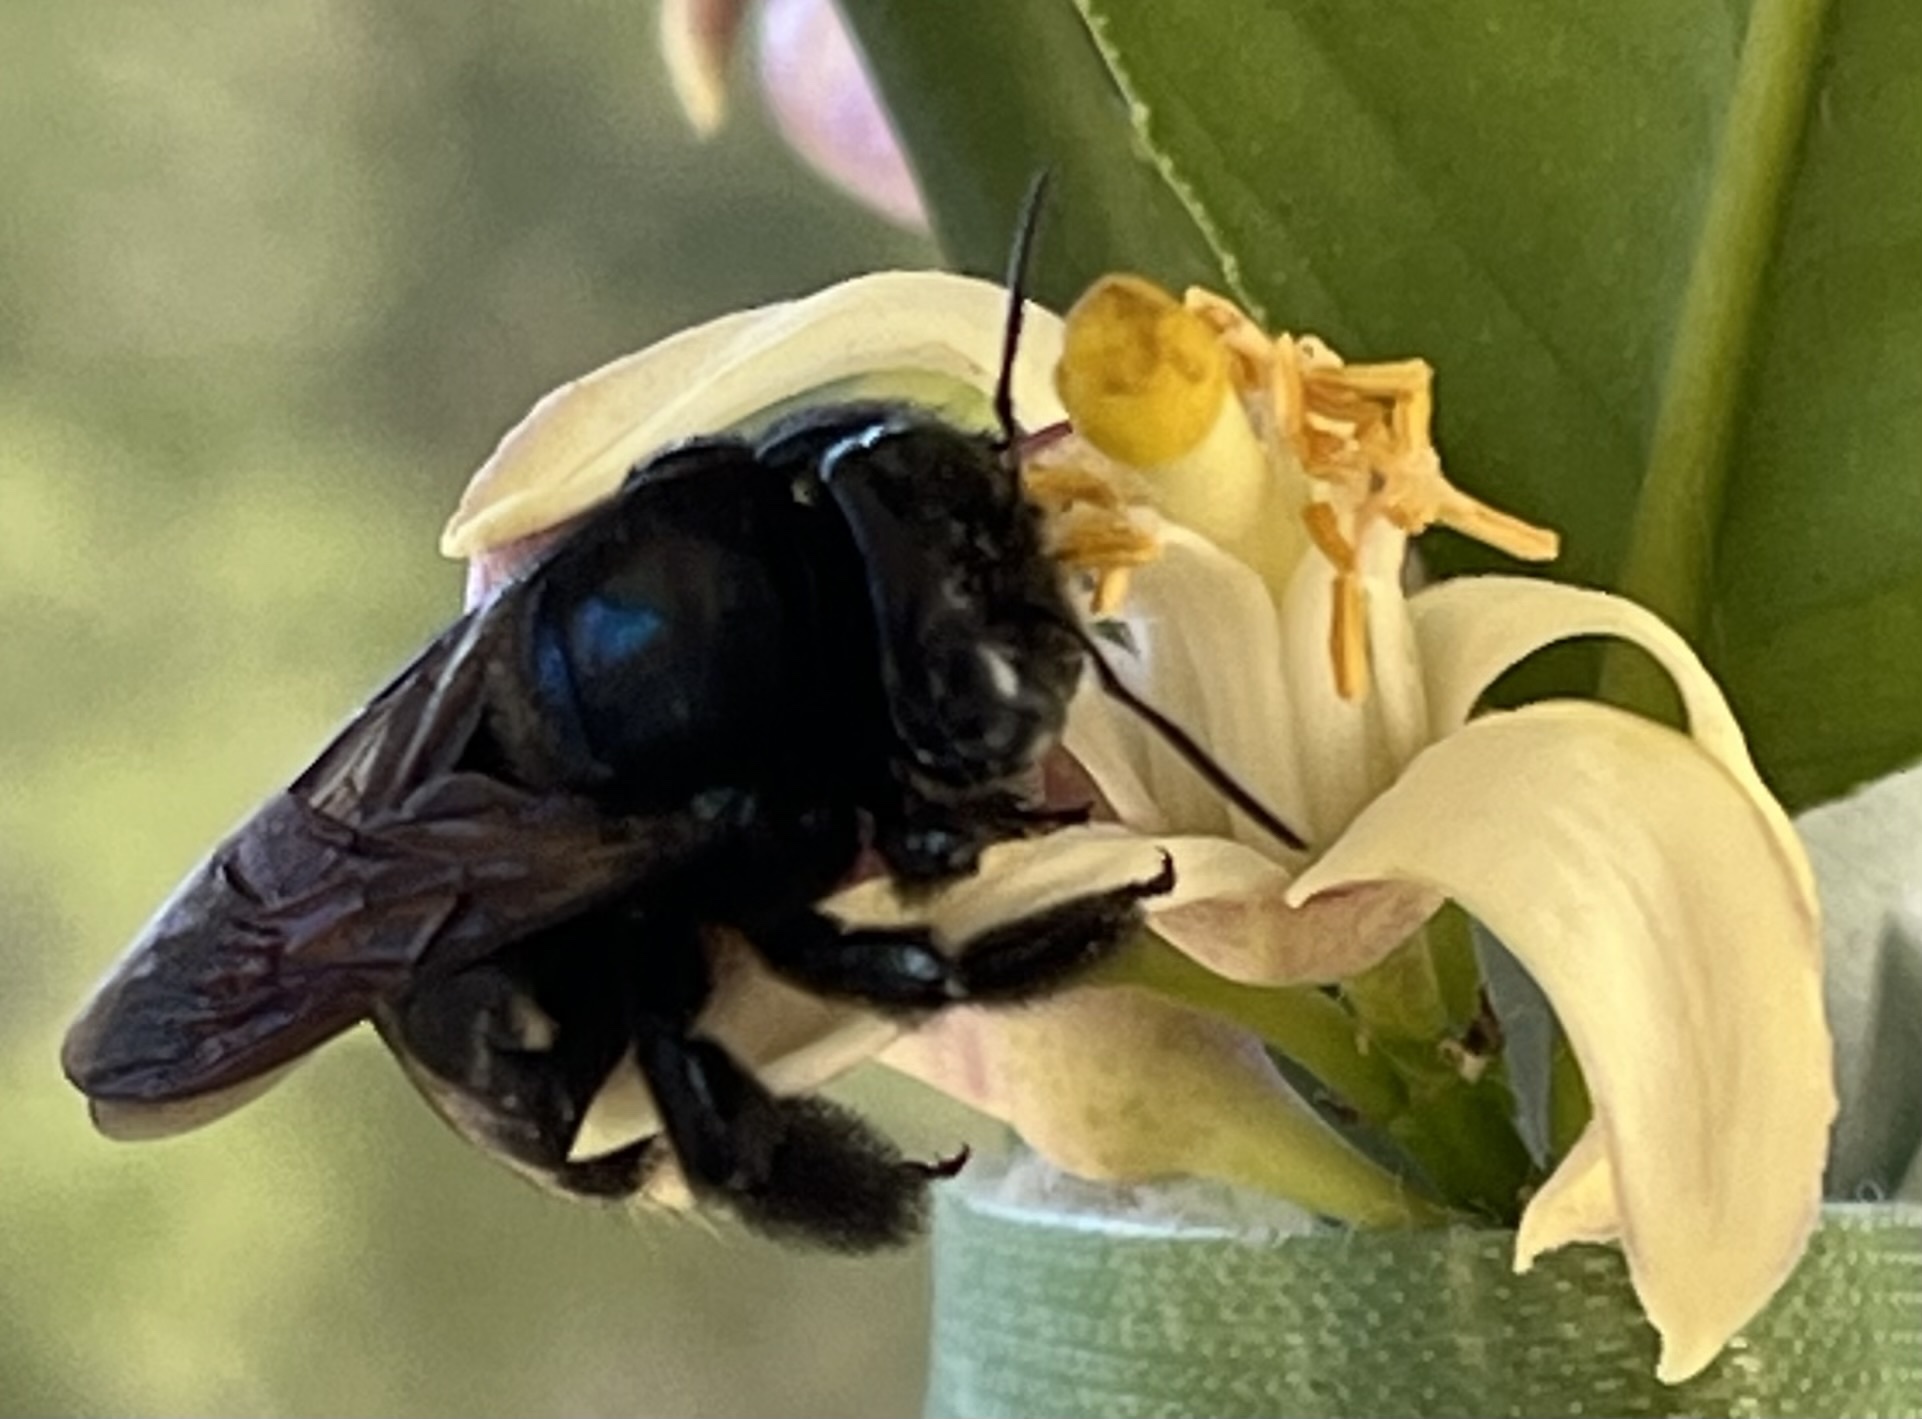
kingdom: Animalia
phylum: Arthropoda
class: Insecta
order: Hymenoptera
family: Apidae
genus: Xylocopa
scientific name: Xylocopa micans
